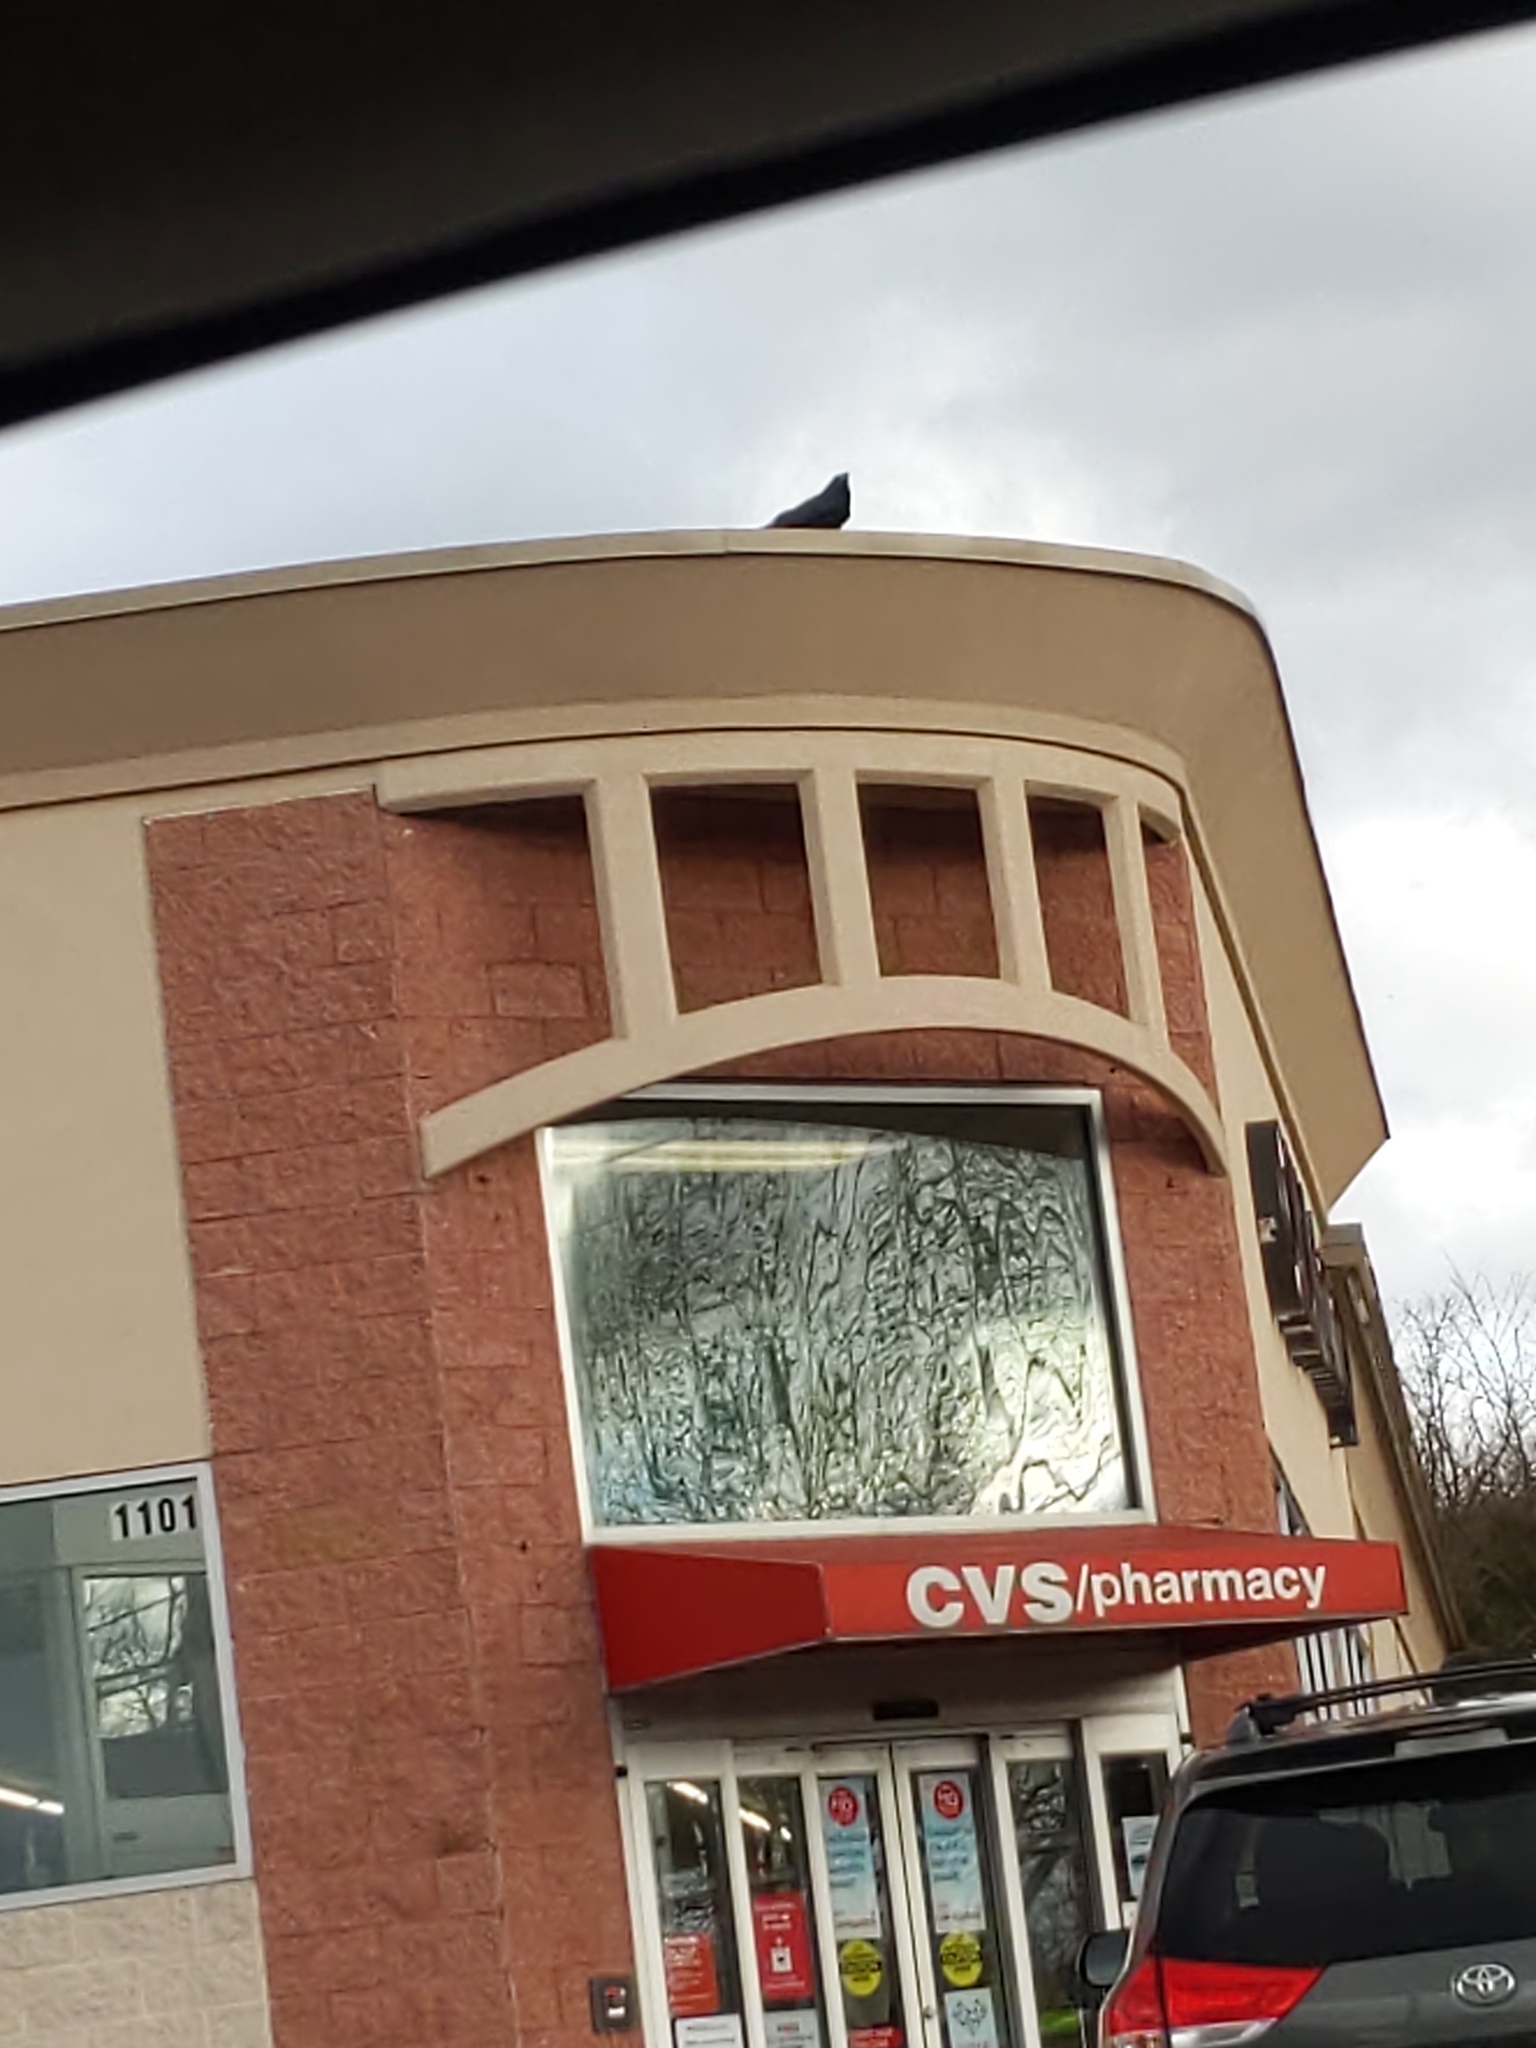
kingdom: Animalia
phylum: Chordata
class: Aves
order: Passeriformes
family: Corvidae
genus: Corvus
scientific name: Corvus corax
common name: Common raven
